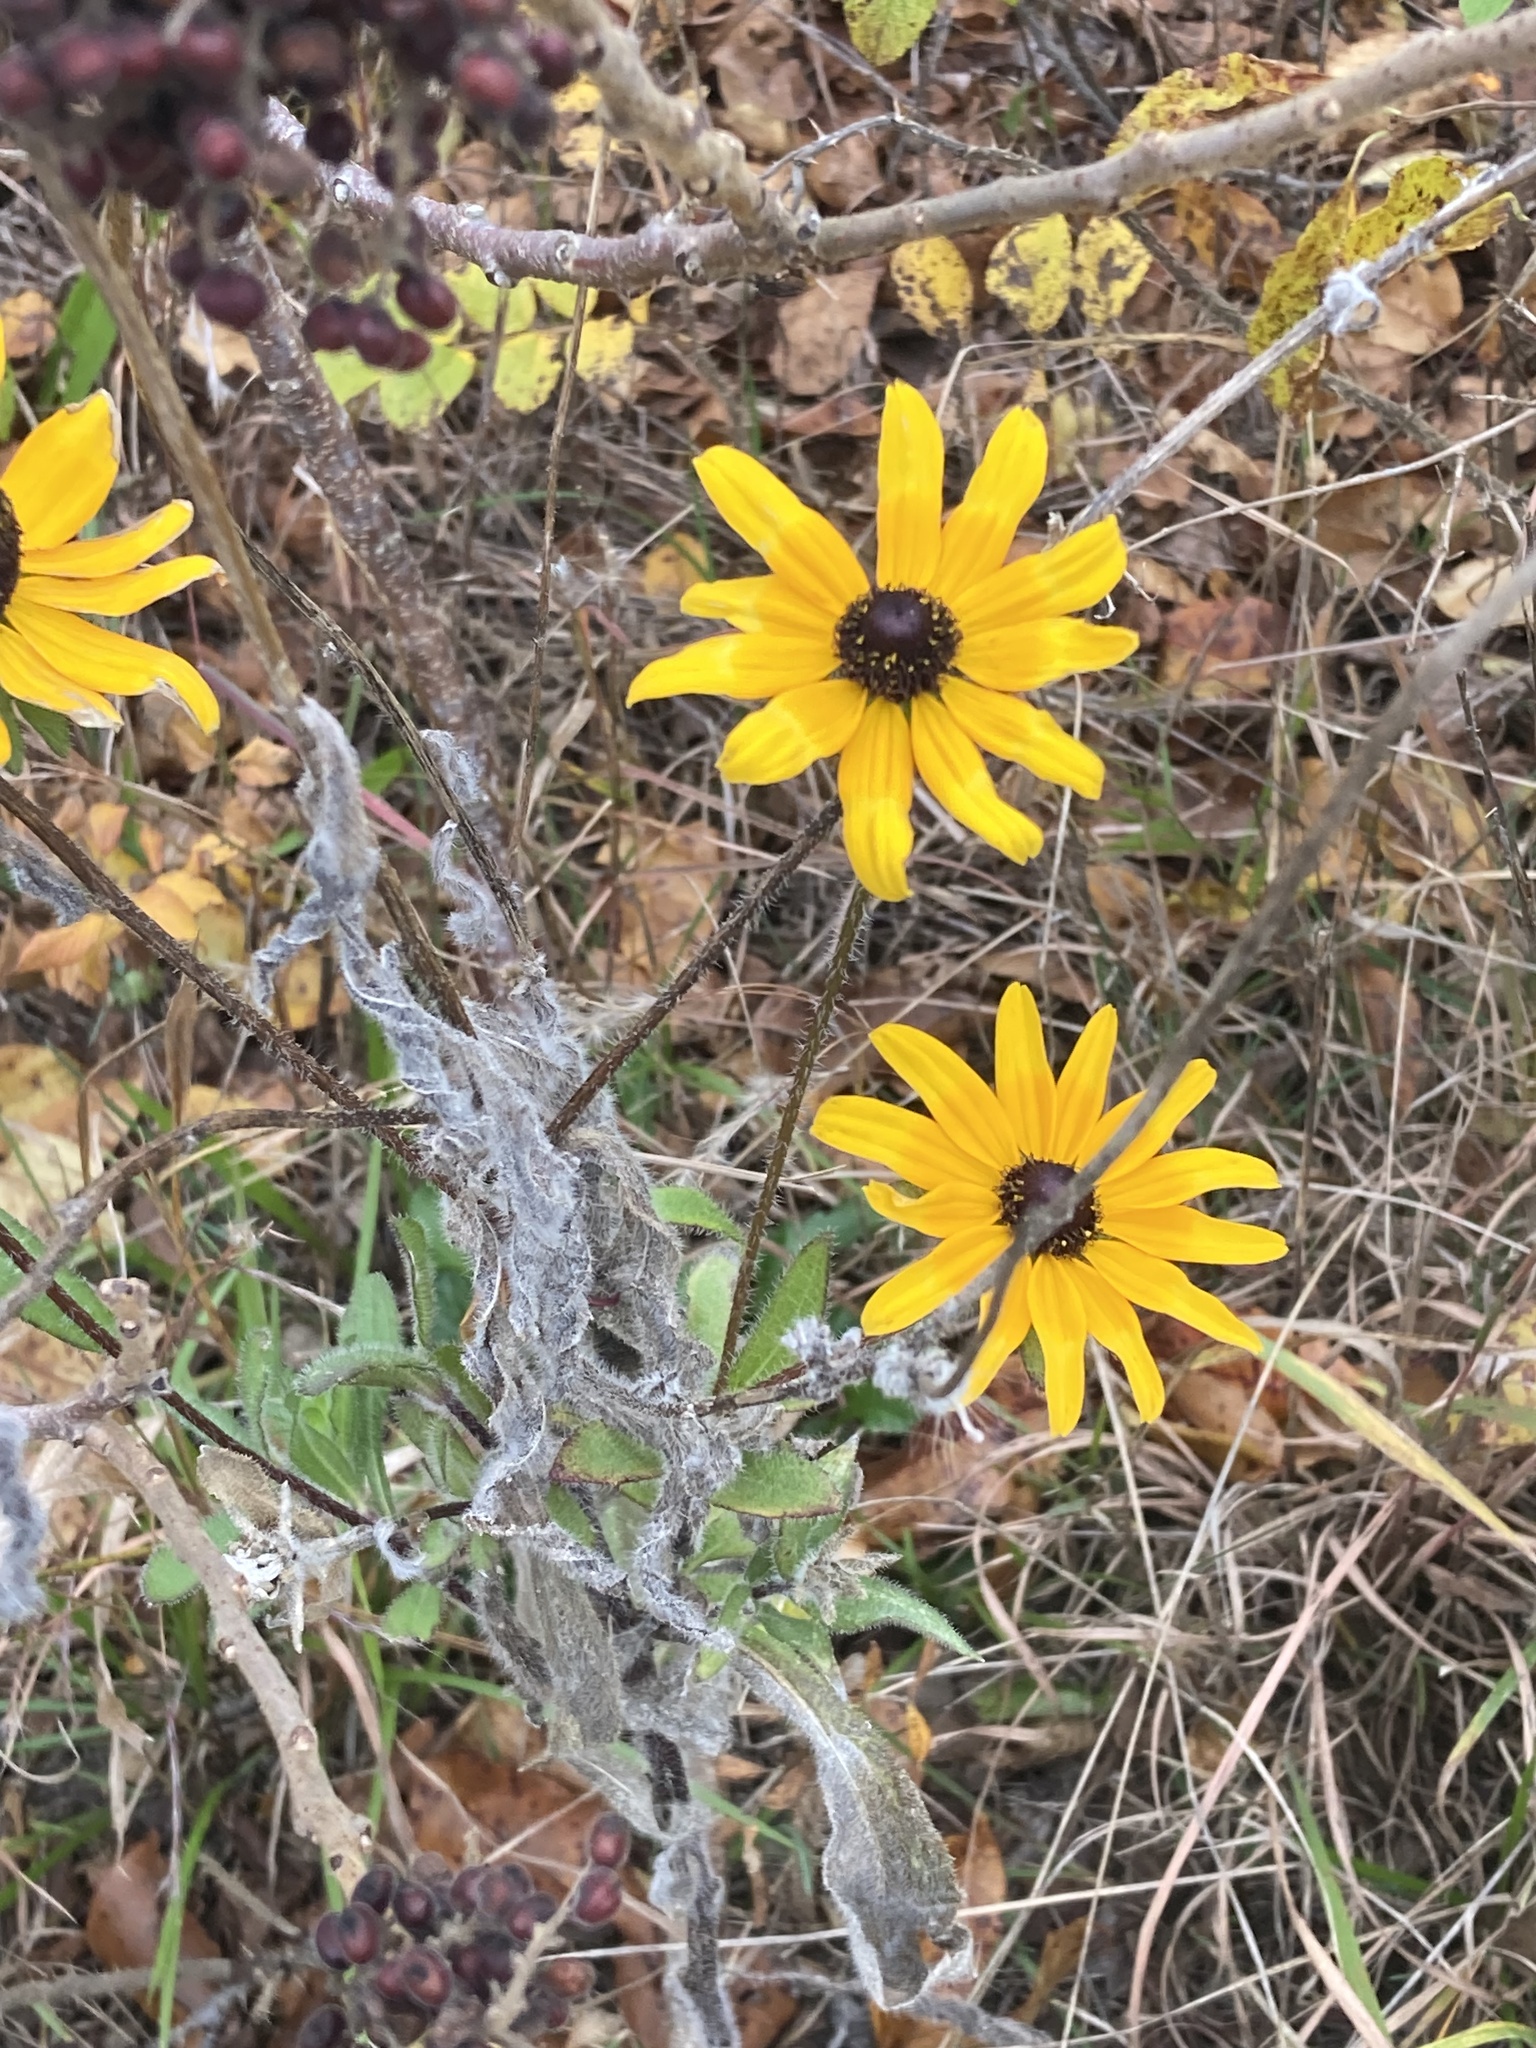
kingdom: Plantae
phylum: Tracheophyta
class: Magnoliopsida
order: Asterales
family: Asteraceae
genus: Rudbeckia
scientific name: Rudbeckia hirta
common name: Black-eyed-susan
